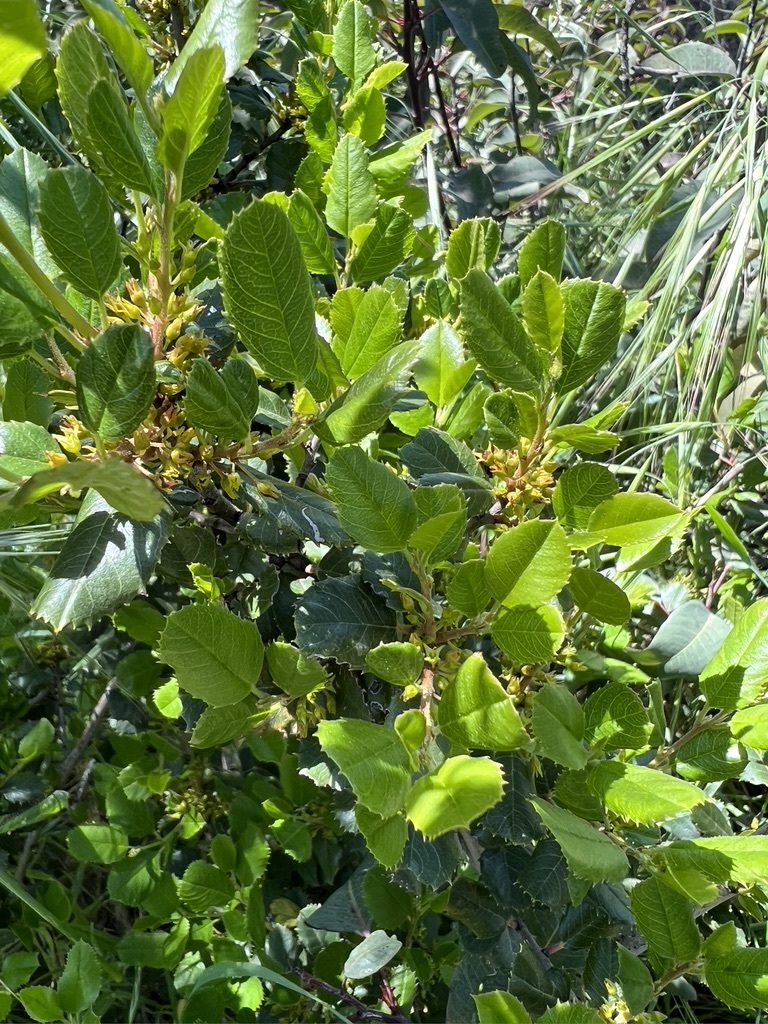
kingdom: Plantae
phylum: Tracheophyta
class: Magnoliopsida
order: Rosales
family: Rhamnaceae
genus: Endotropis
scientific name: Endotropis crocea
